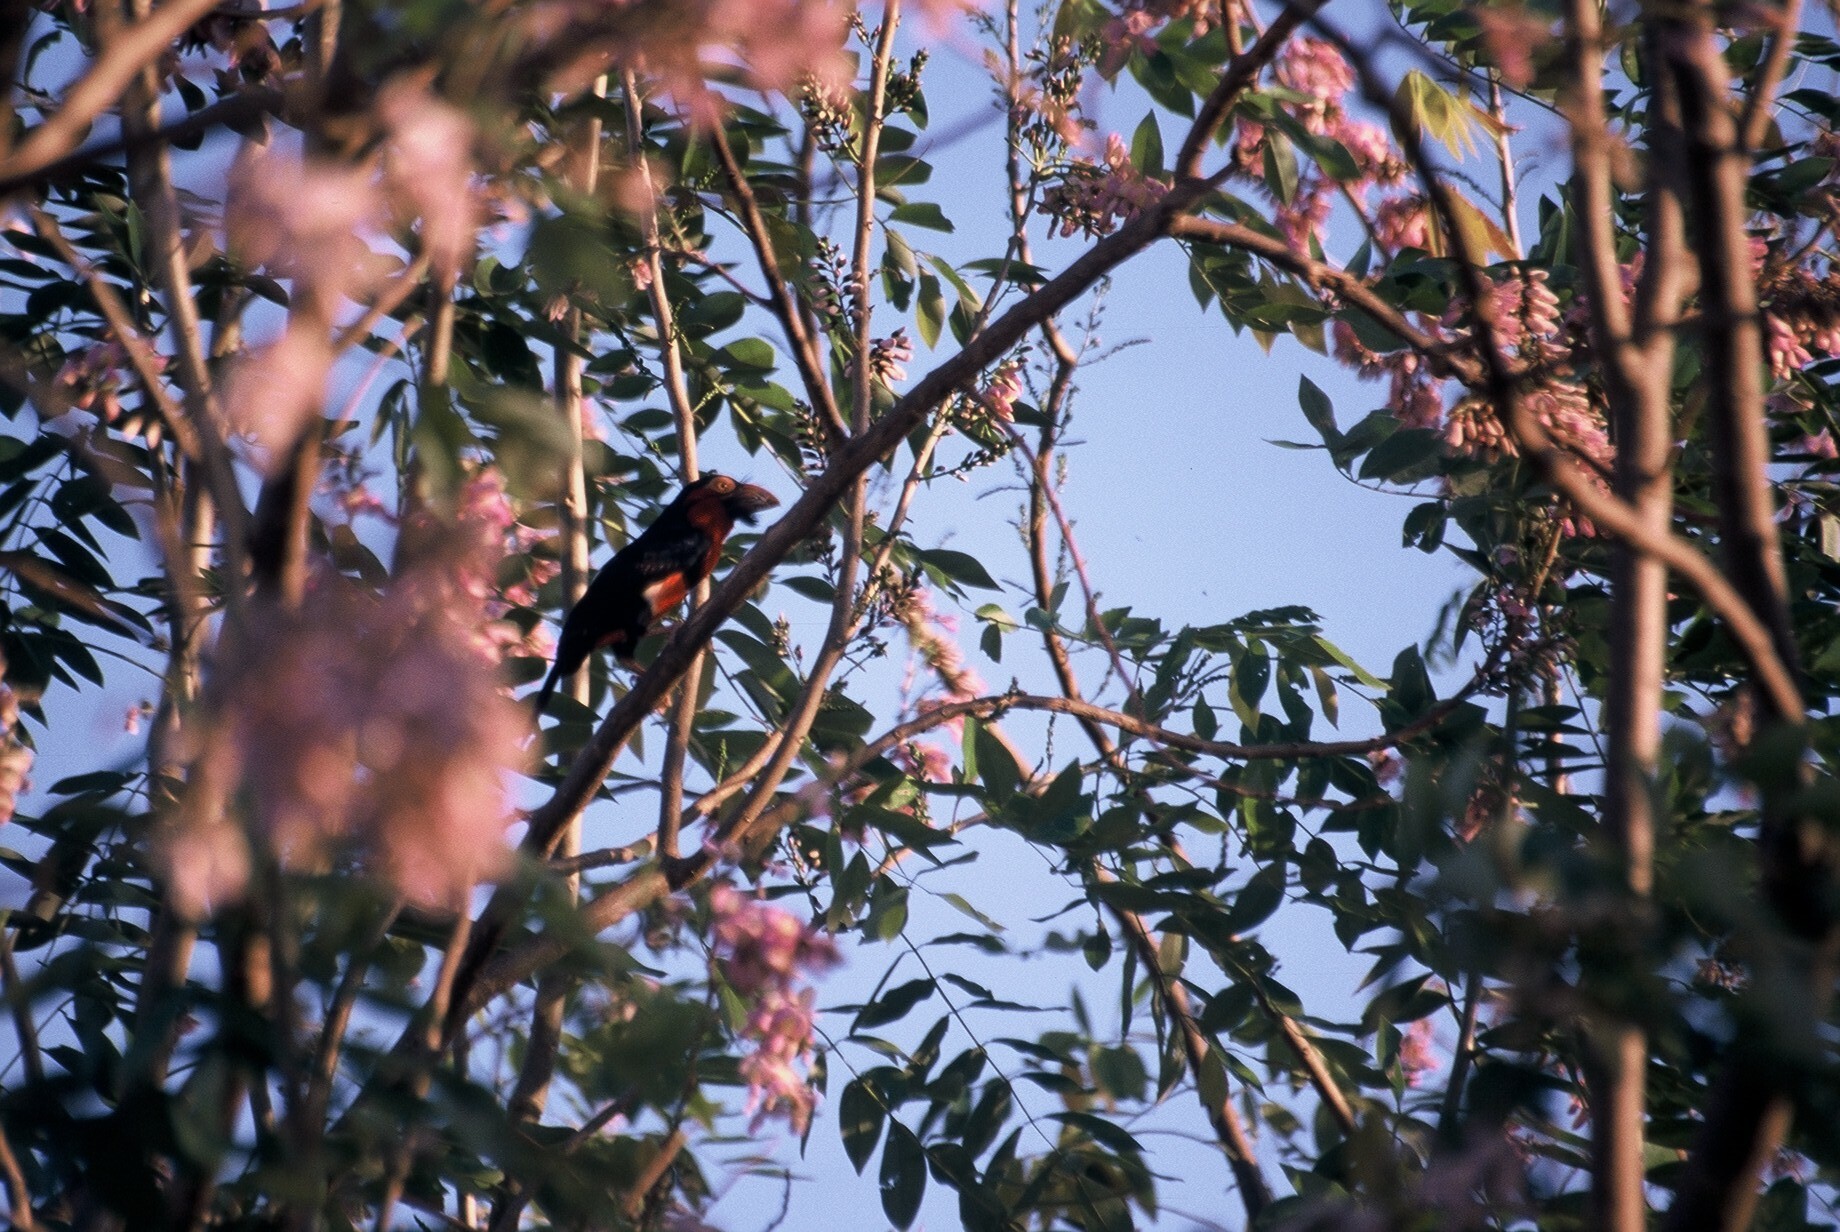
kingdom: Animalia
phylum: Chordata
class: Aves
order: Piciformes
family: Lybiidae
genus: Lybius
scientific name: Lybius dubius
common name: Bearded barbet
